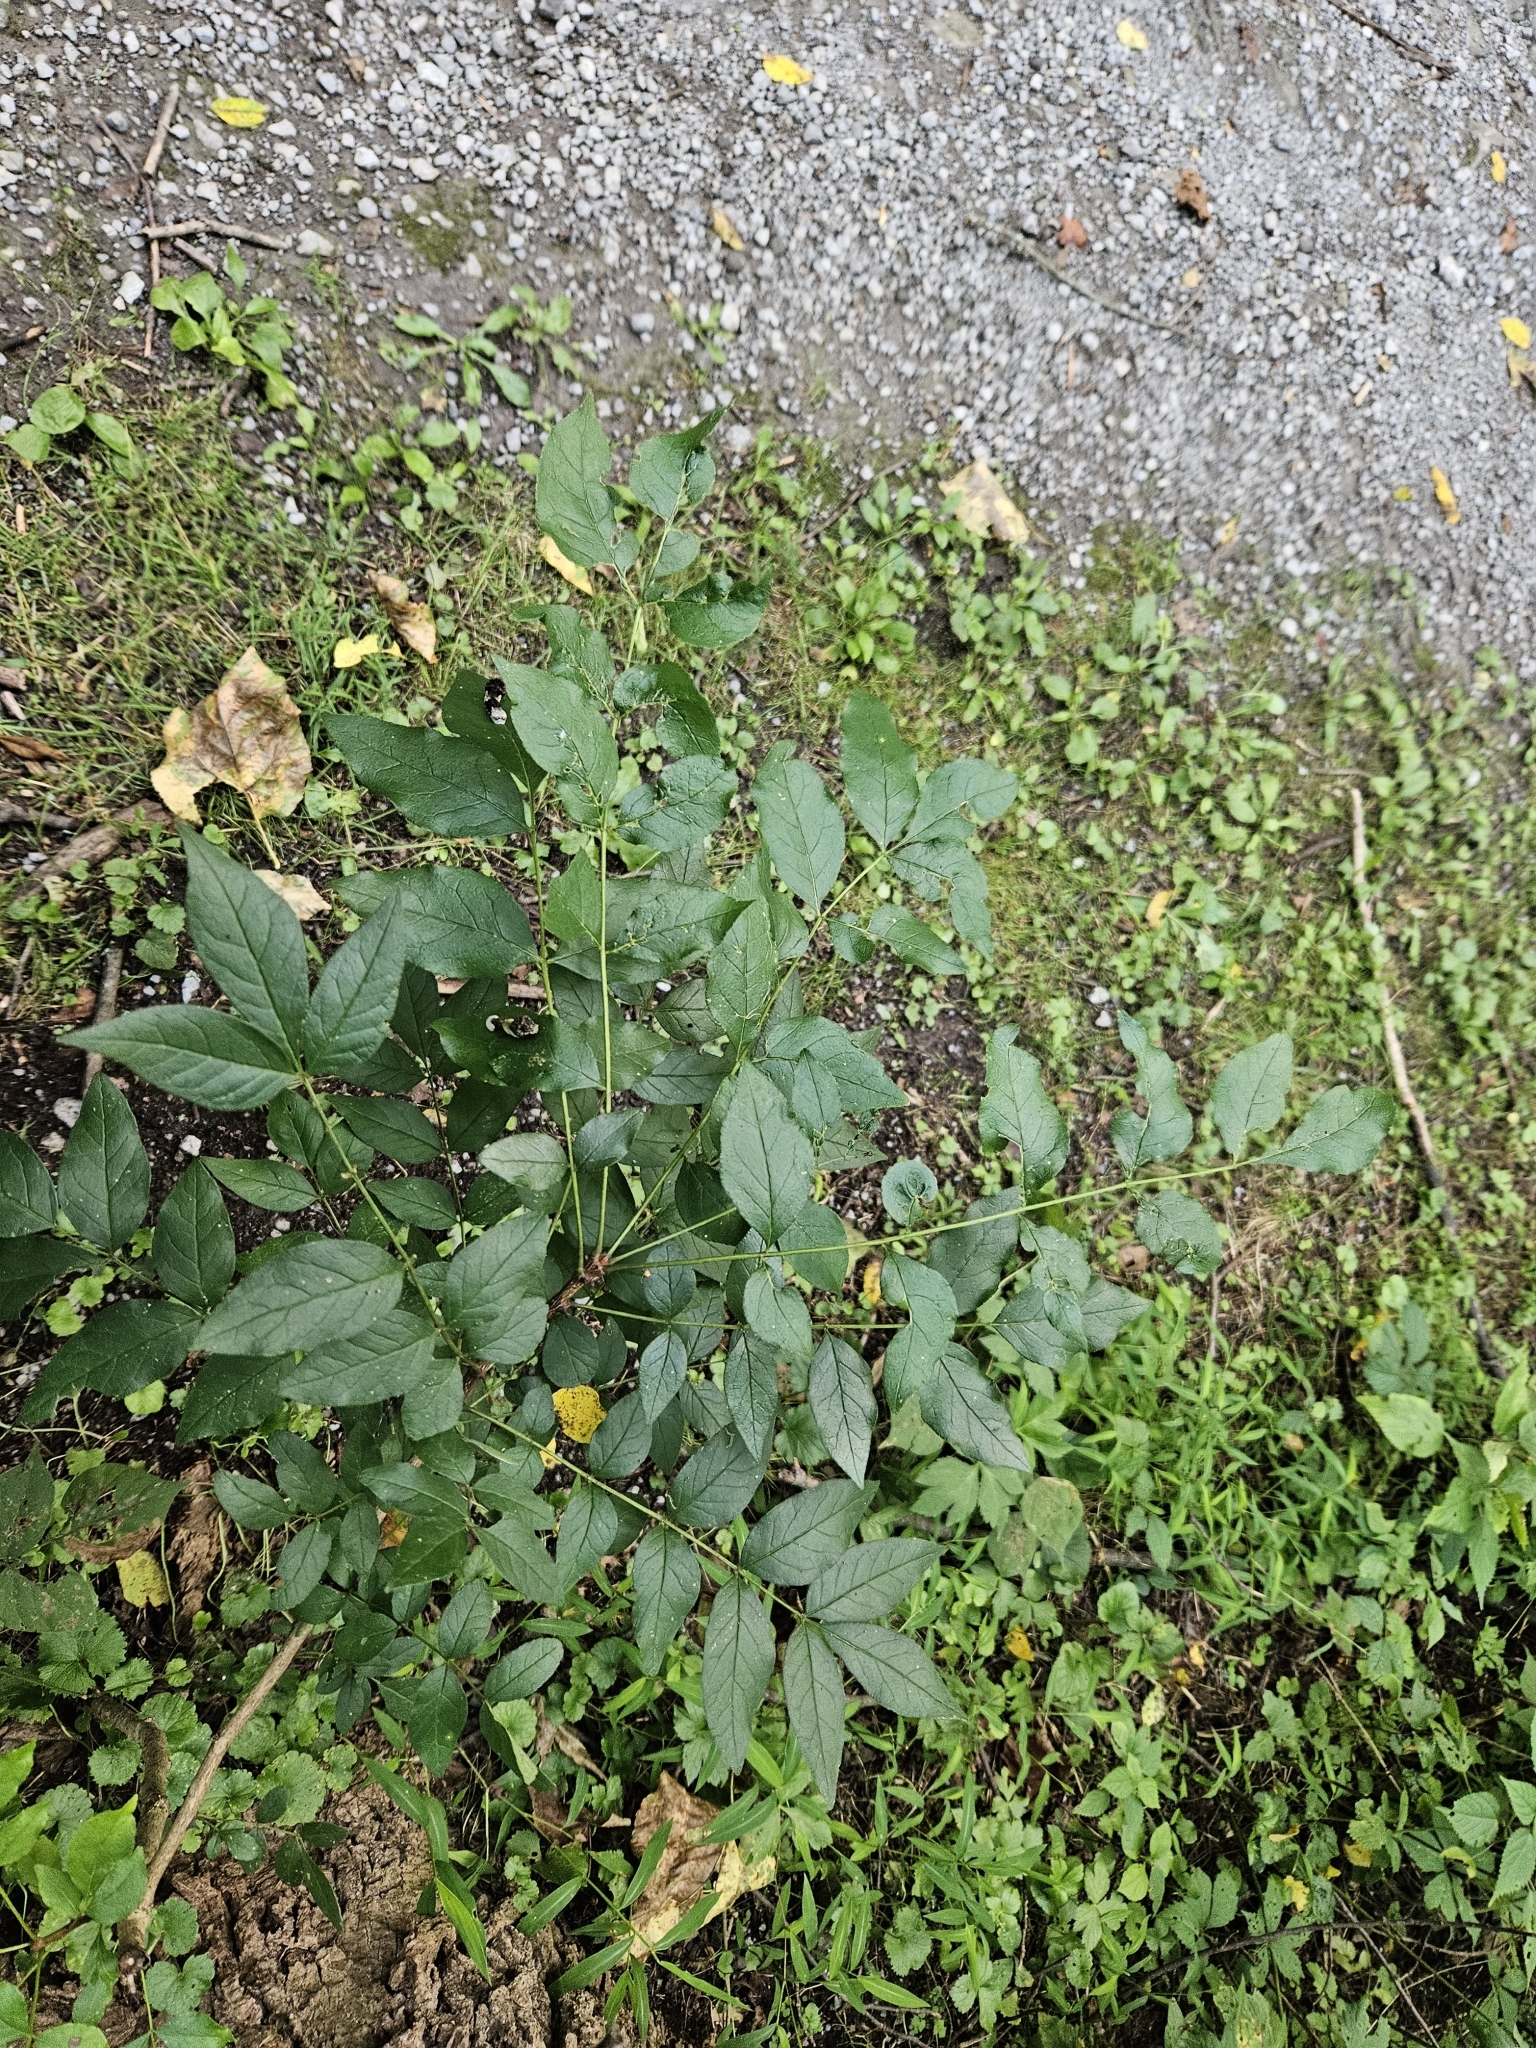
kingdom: Plantae
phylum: Tracheophyta
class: Magnoliopsida
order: Sapindales
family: Rutaceae
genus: Zanthoxylum
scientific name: Zanthoxylum americanum
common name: Northern prickly-ash
